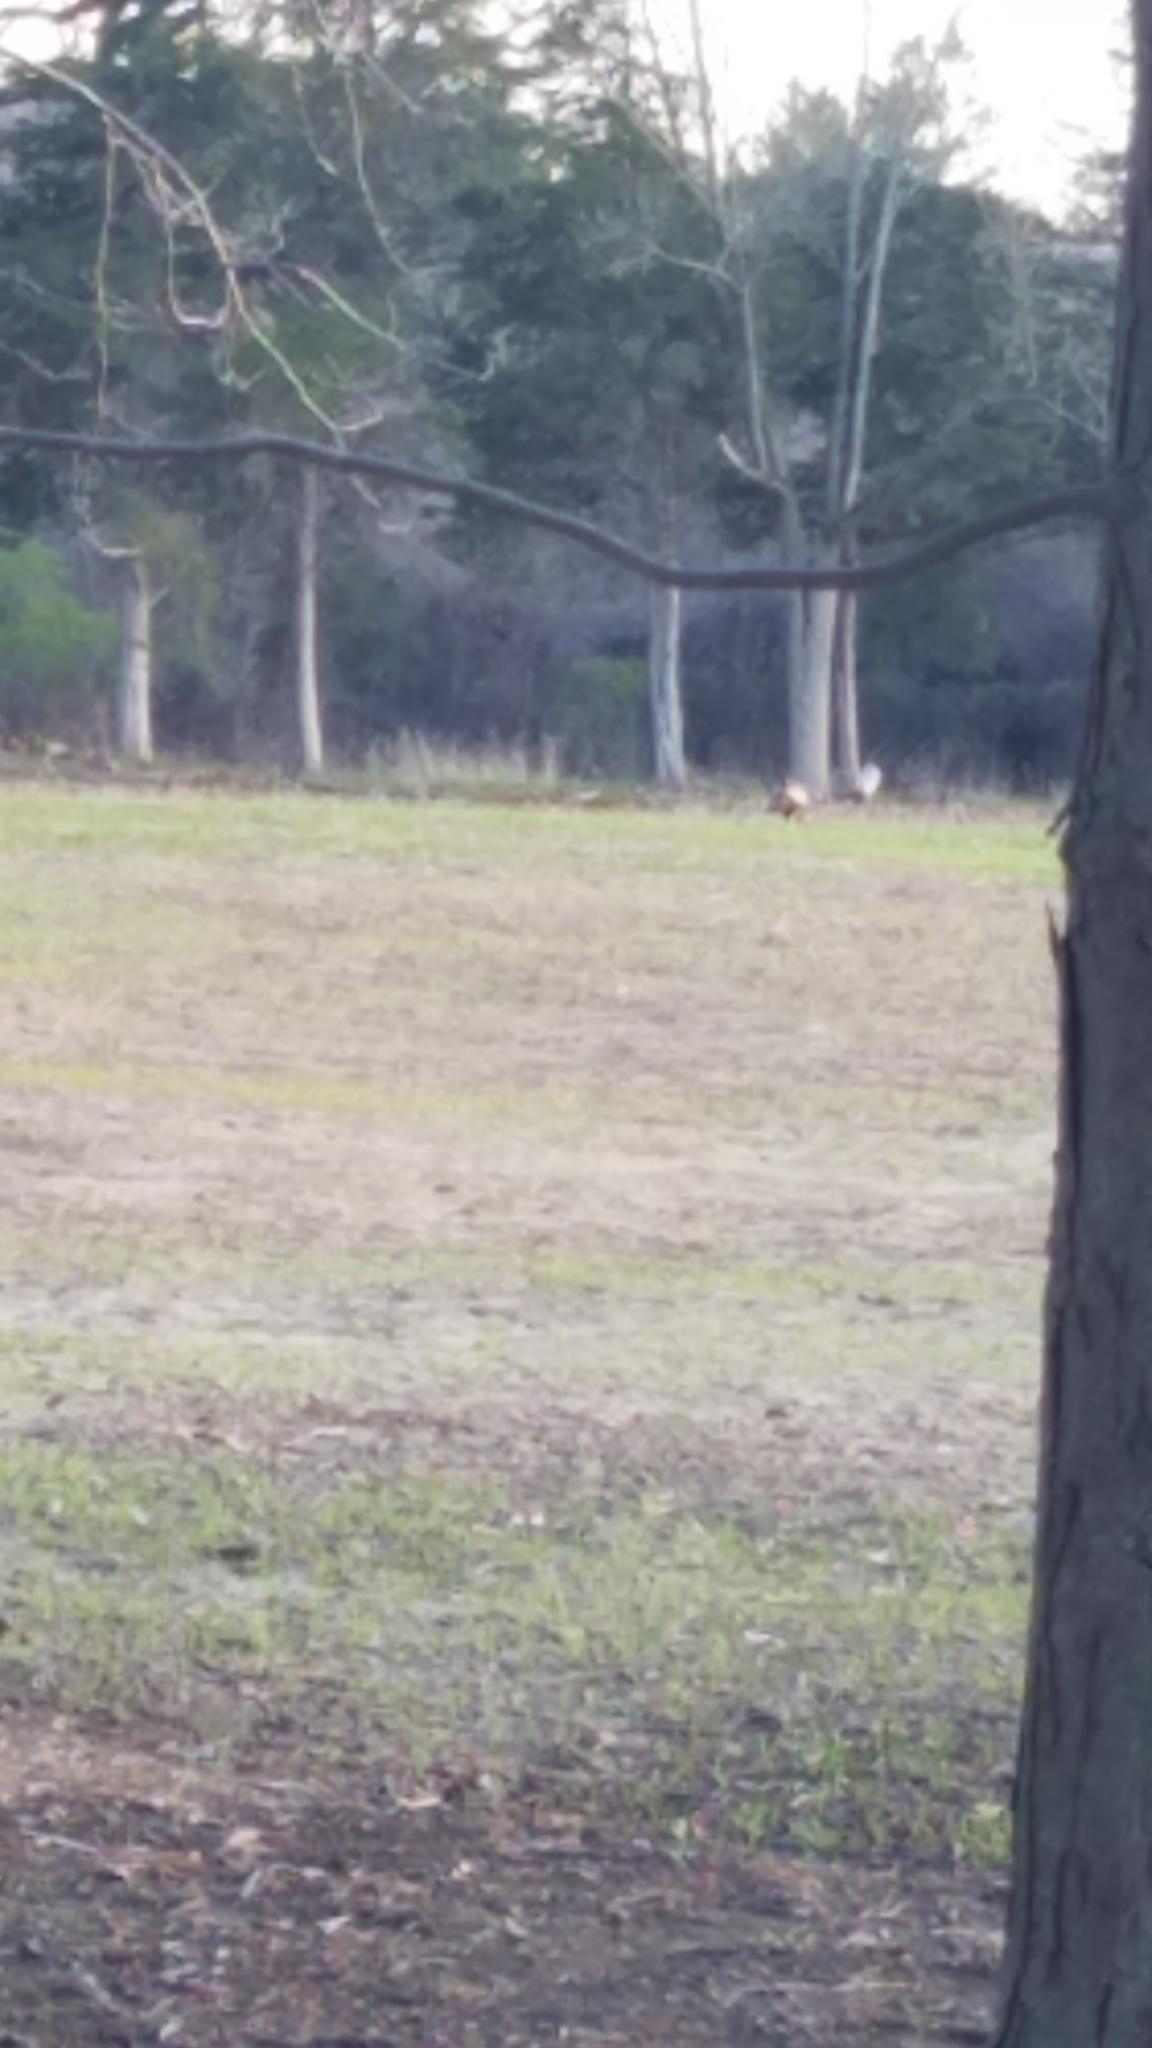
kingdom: Animalia
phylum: Chordata
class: Aves
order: Galliformes
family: Phasianidae
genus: Meleagris
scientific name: Meleagris gallopavo
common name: Wild turkey
